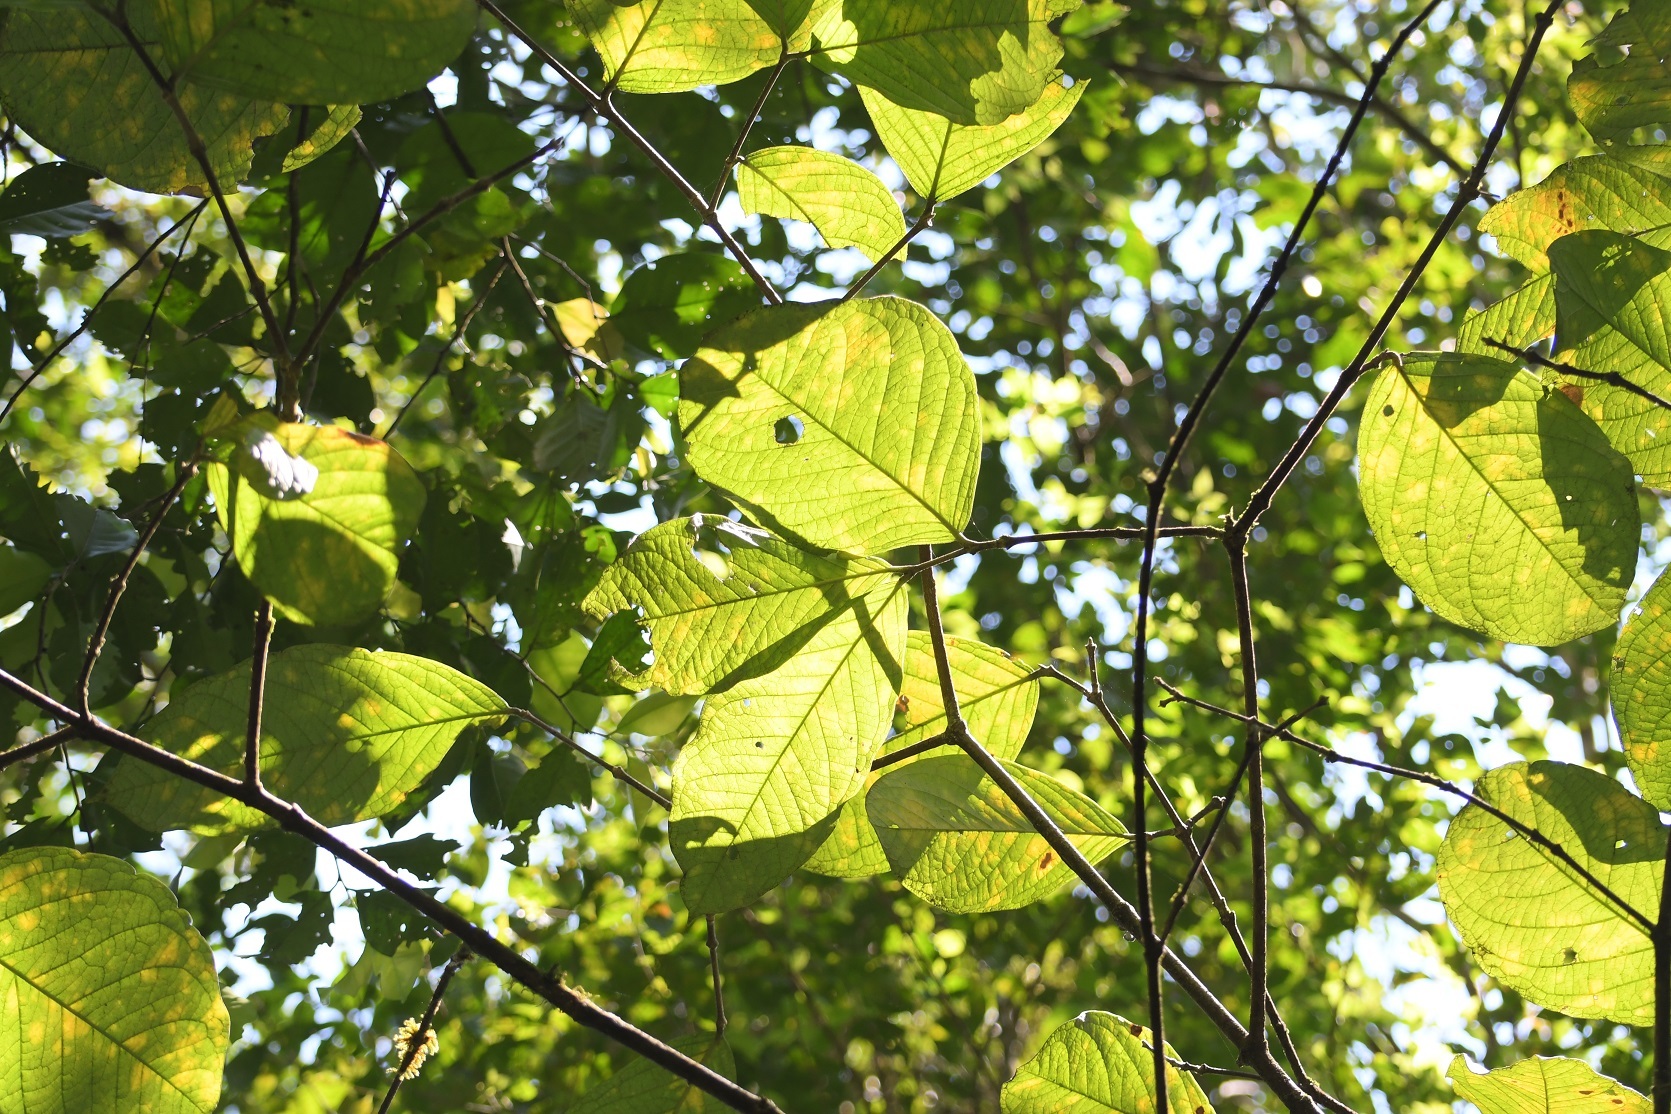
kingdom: Plantae
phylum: Tracheophyta
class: Magnoliopsida
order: Malpighiales
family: Malpighiaceae
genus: Bunchosia
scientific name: Bunchosia macrophylla
